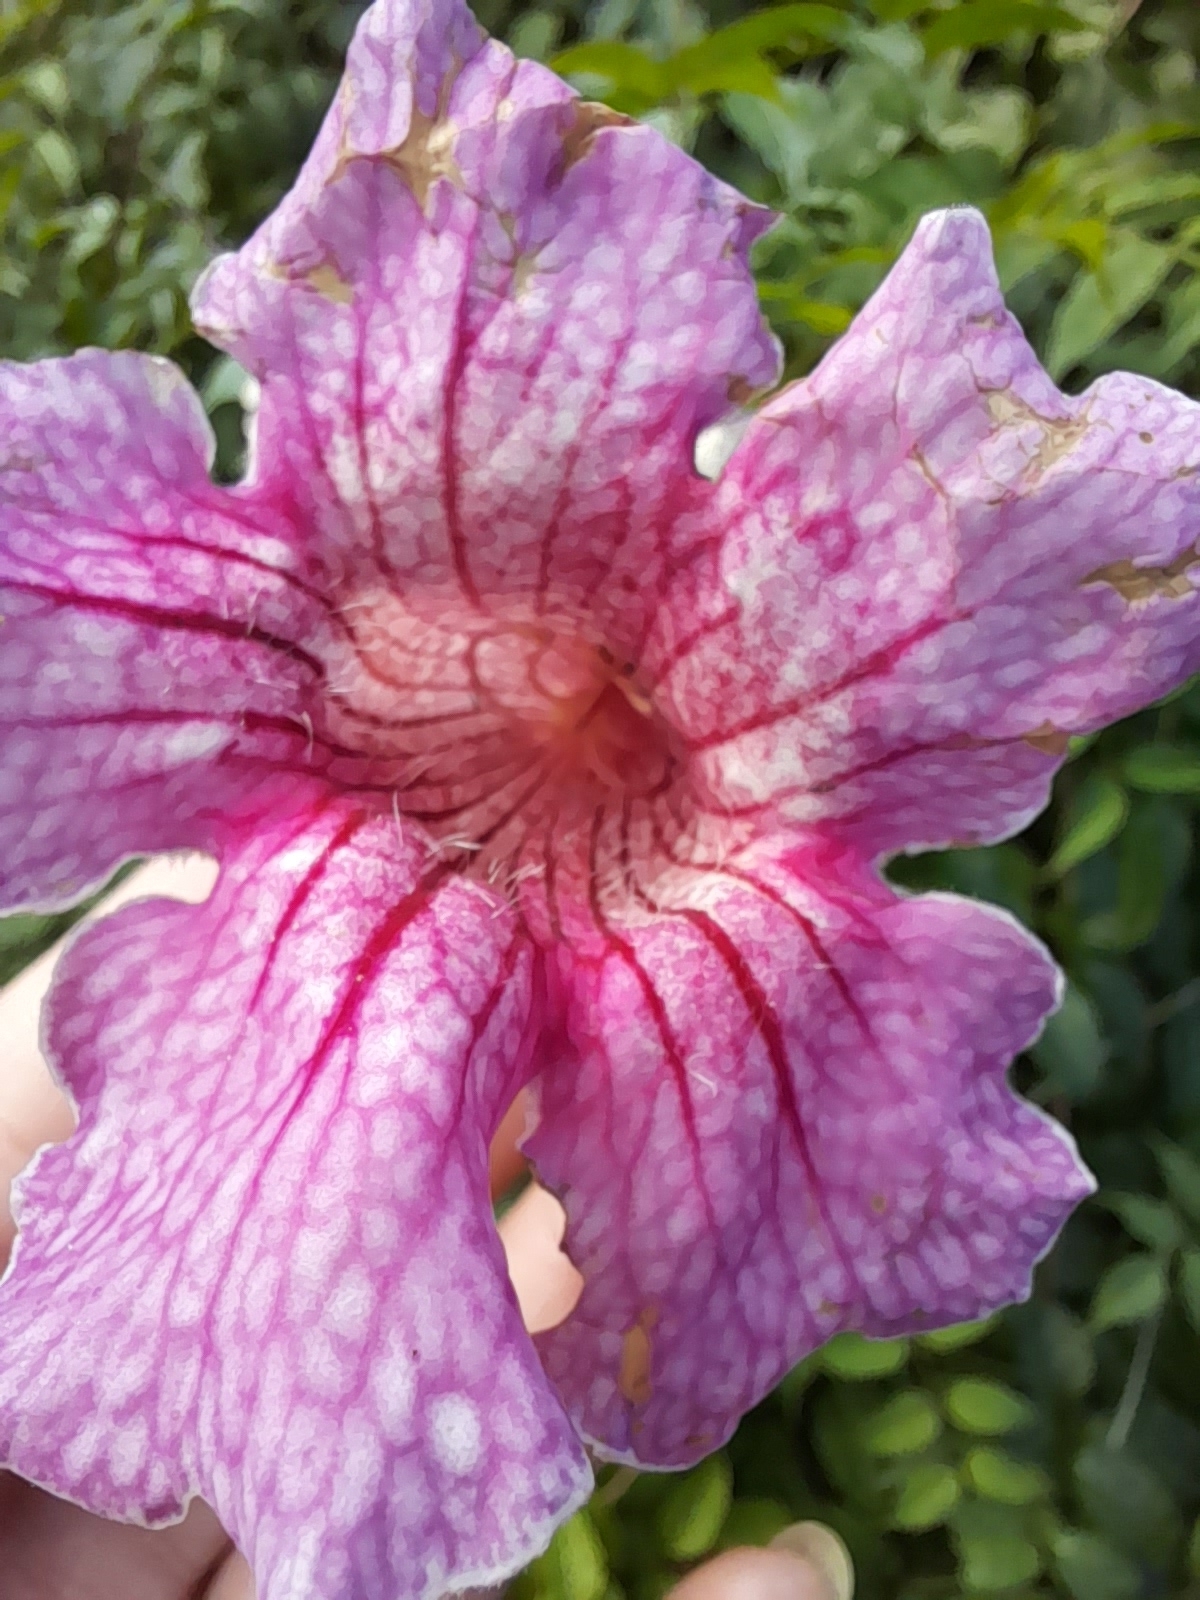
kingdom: Plantae
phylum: Tracheophyta
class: Magnoliopsida
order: Lamiales
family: Bignoniaceae
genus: Podranea
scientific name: Podranea ricasoliana
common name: Zimbabwe creeper
